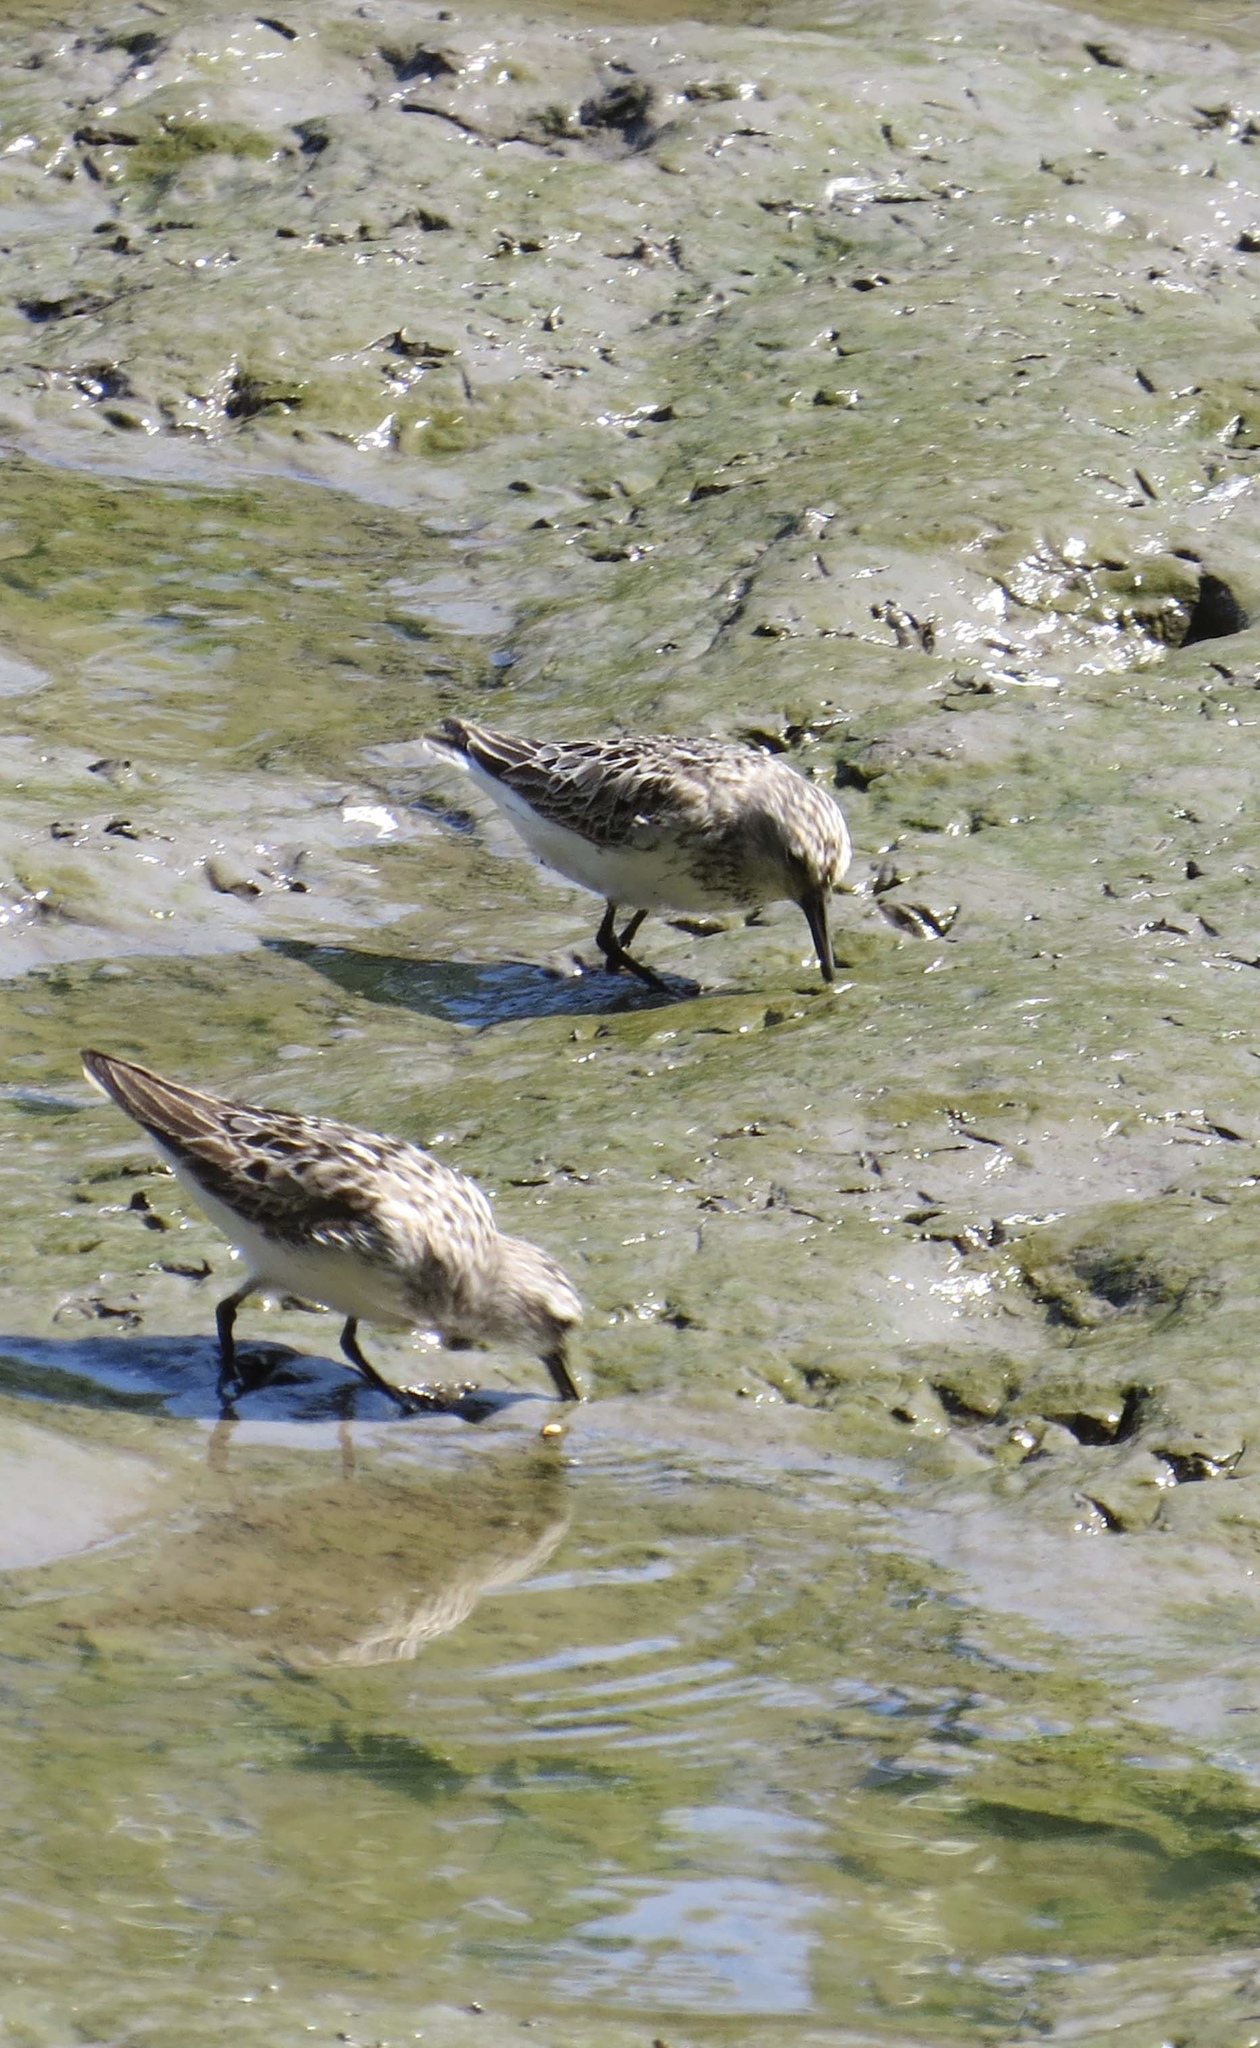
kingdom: Animalia
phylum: Chordata
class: Aves
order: Charadriiformes
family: Scolopacidae
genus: Calidris
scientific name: Calidris minutilla
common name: Least sandpiper
